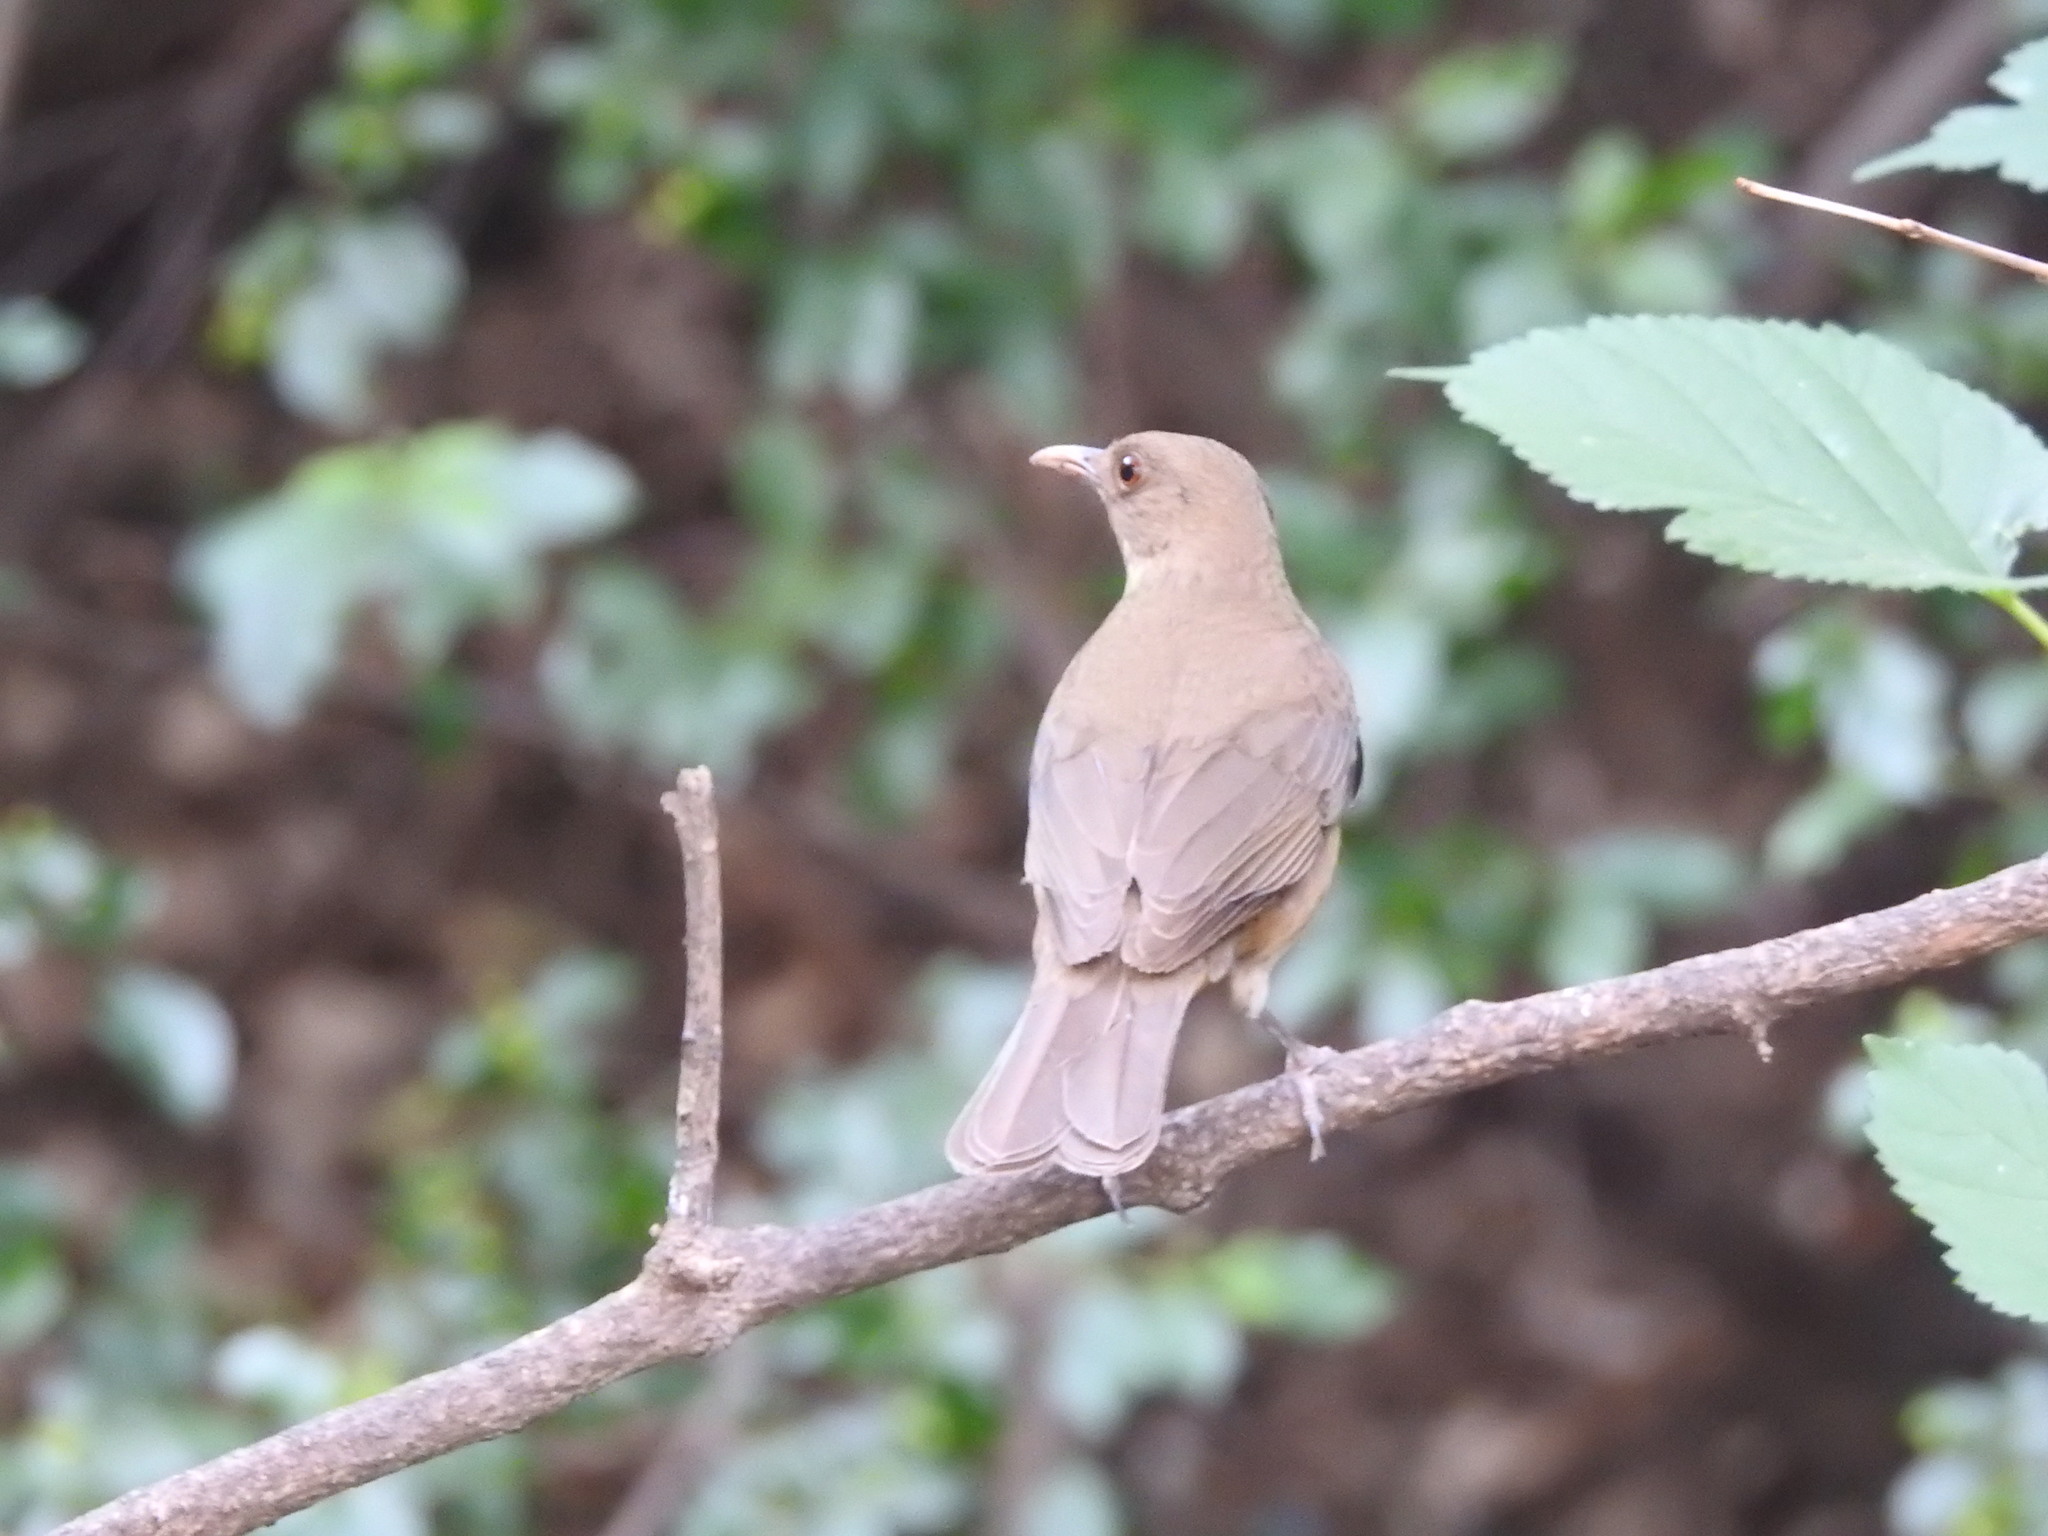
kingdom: Animalia
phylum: Chordata
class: Aves
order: Passeriformes
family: Turdidae
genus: Turdus
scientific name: Turdus grayi
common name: Clay-colored thrush
